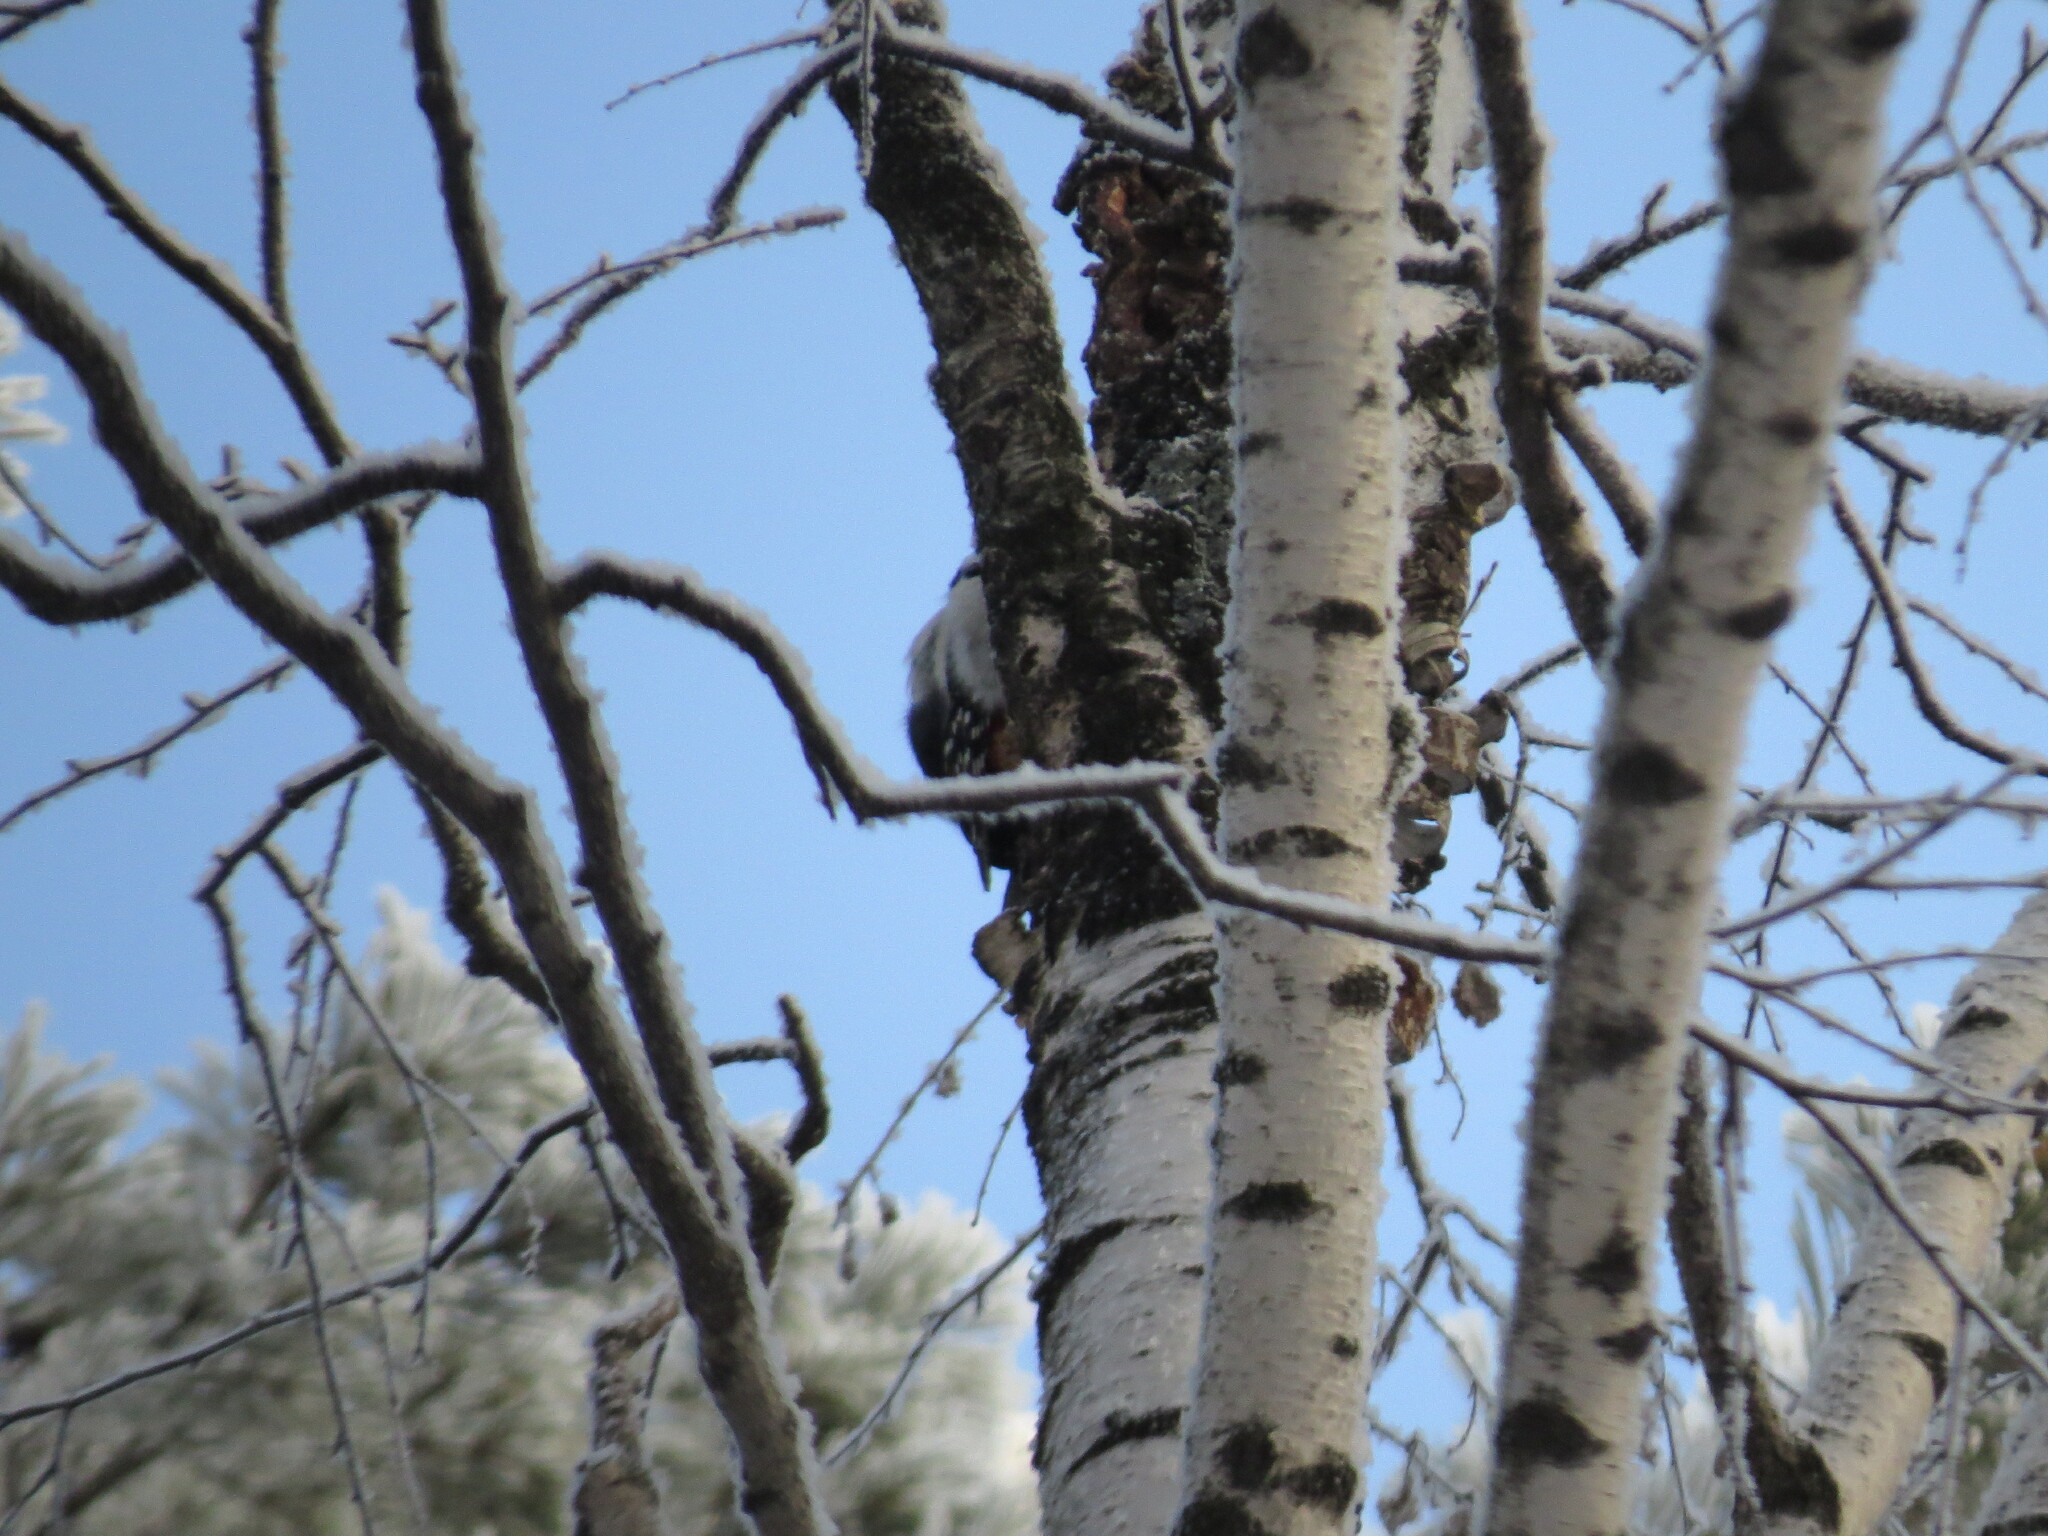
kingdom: Animalia
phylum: Chordata
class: Aves
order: Piciformes
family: Picidae
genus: Dendrocopos
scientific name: Dendrocopos major
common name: Great spotted woodpecker
